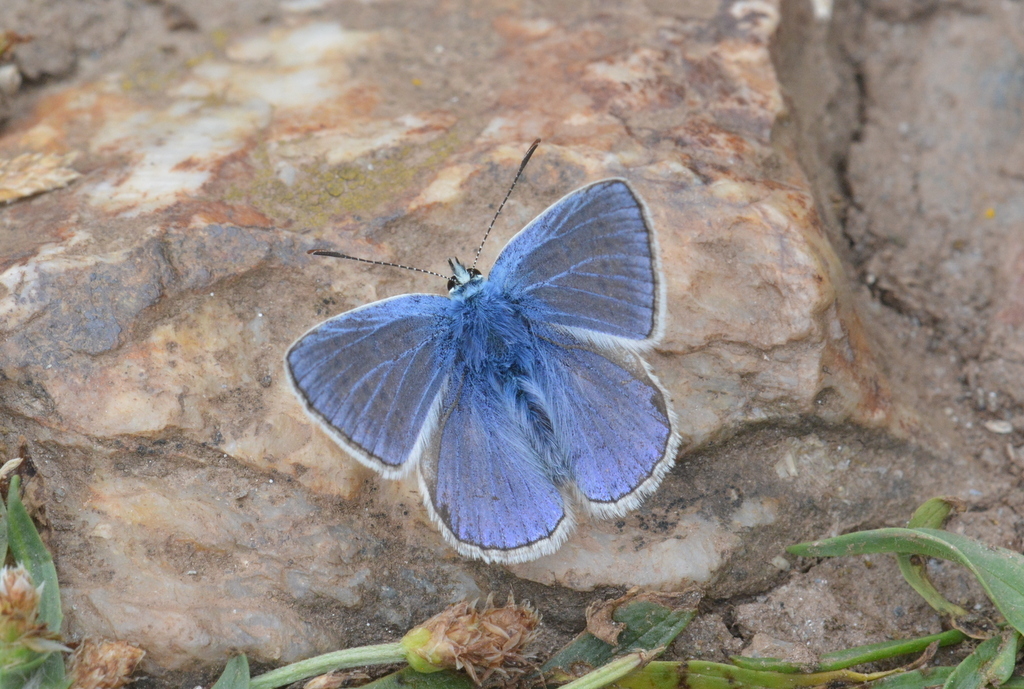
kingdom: Animalia
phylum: Arthropoda
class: Insecta
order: Lepidoptera
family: Lycaenidae
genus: Polyommatus
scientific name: Polyommatus icarus
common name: Common blue
